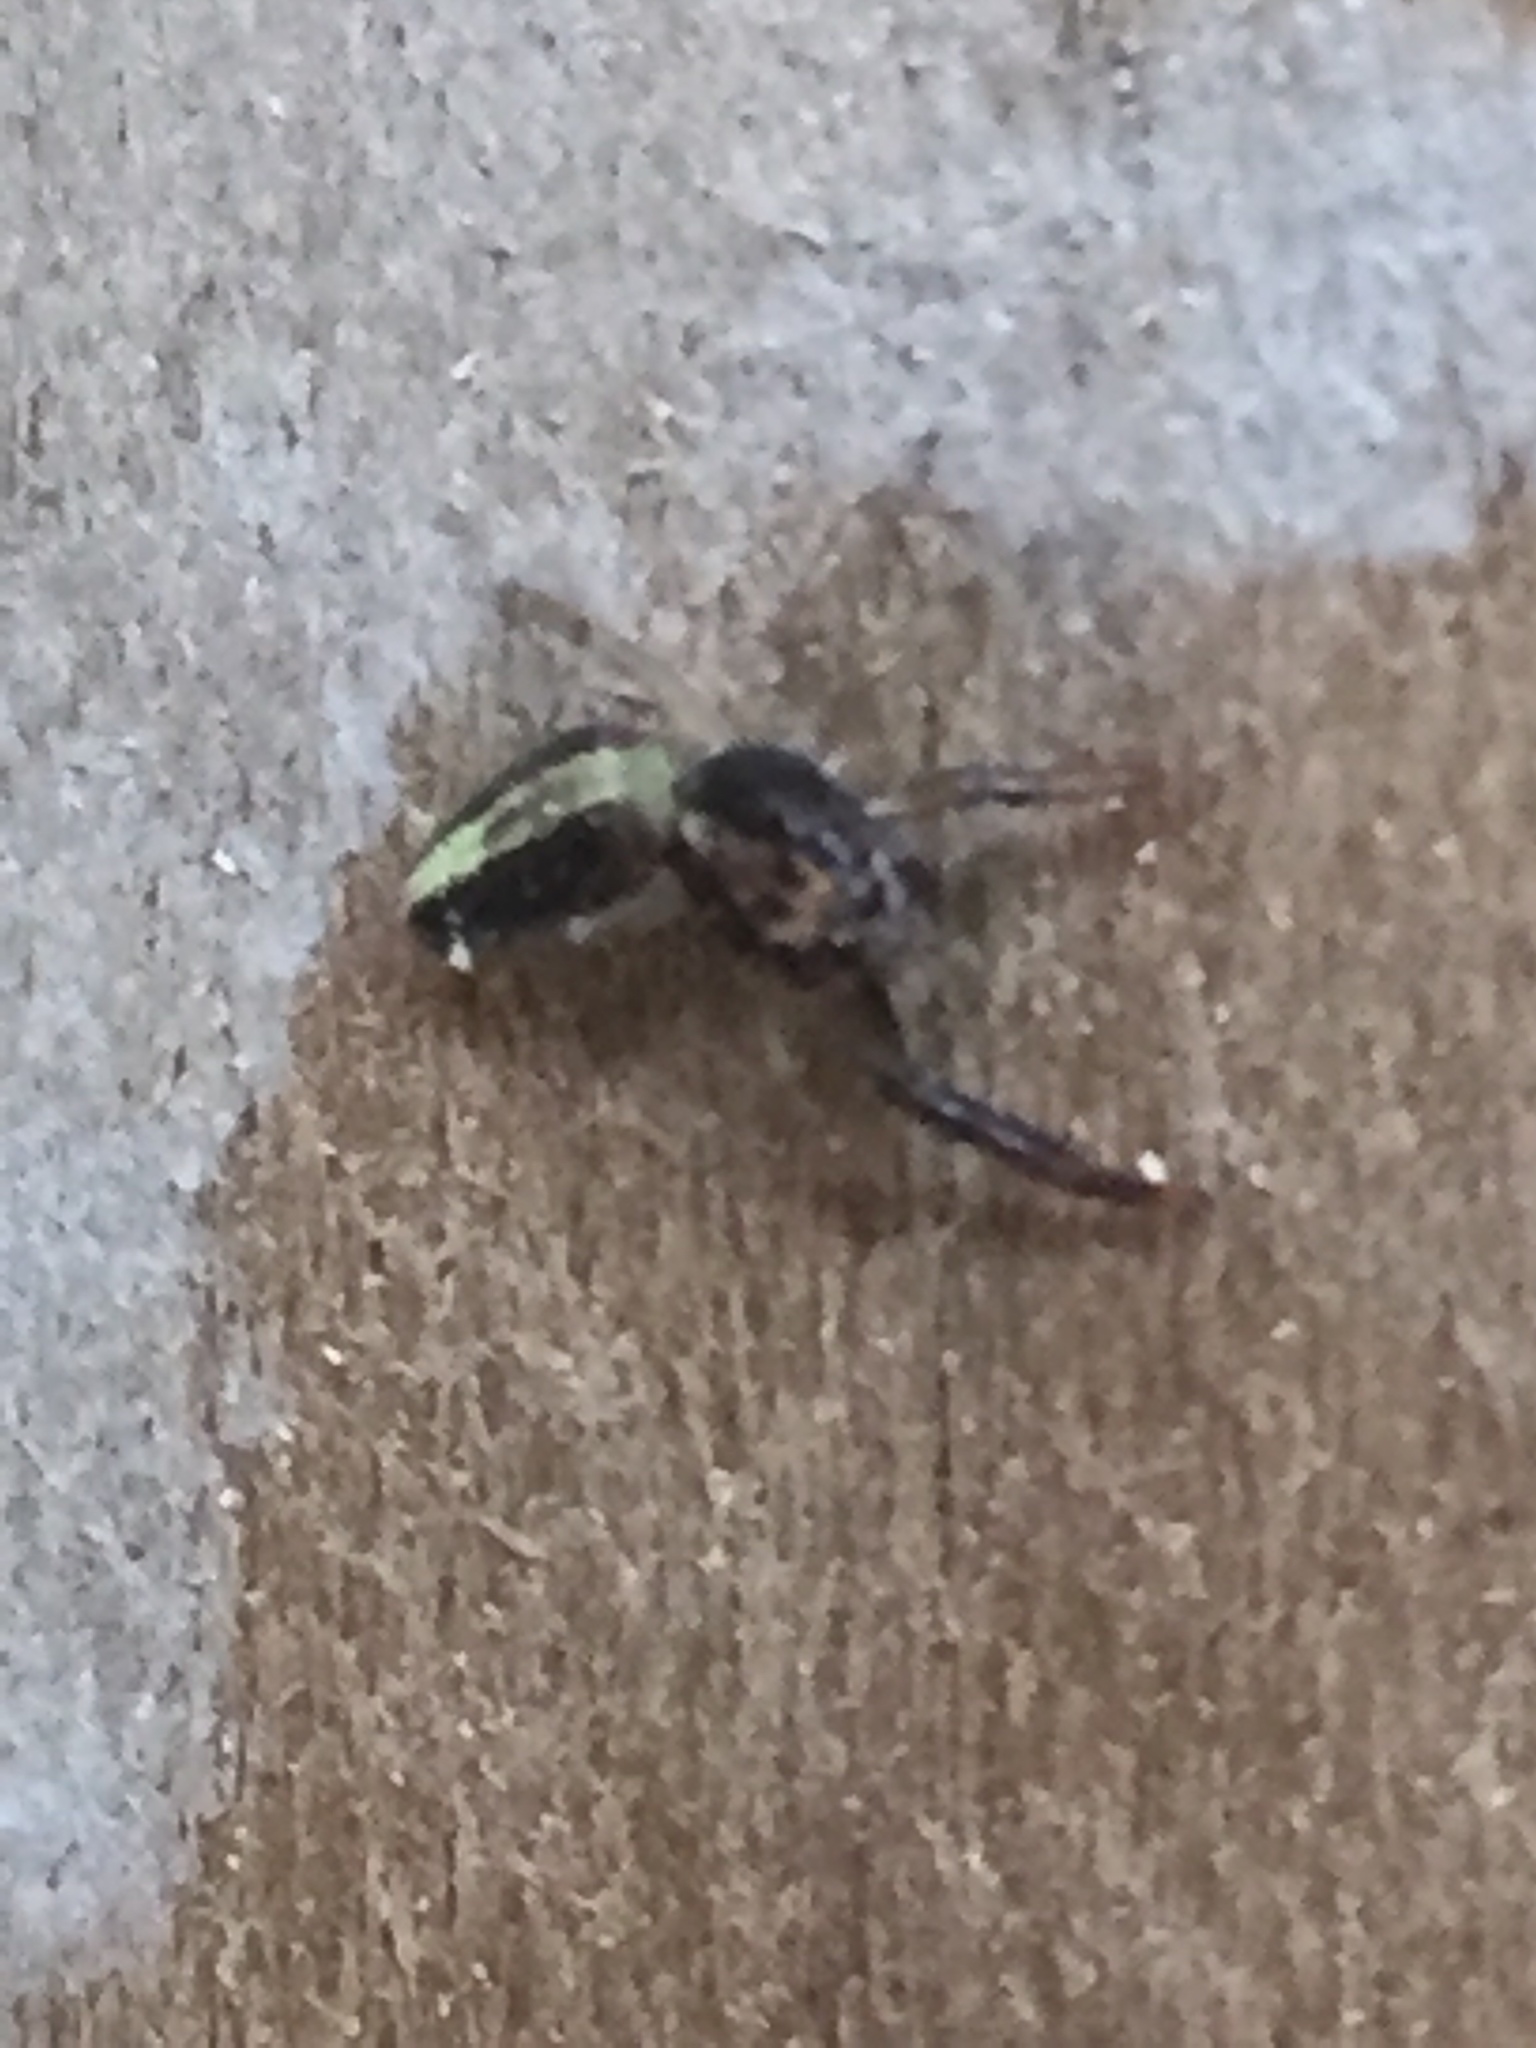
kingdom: Animalia
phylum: Arthropoda
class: Arachnida
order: Araneae
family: Salticidae
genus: Trite
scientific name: Trite planiceps
